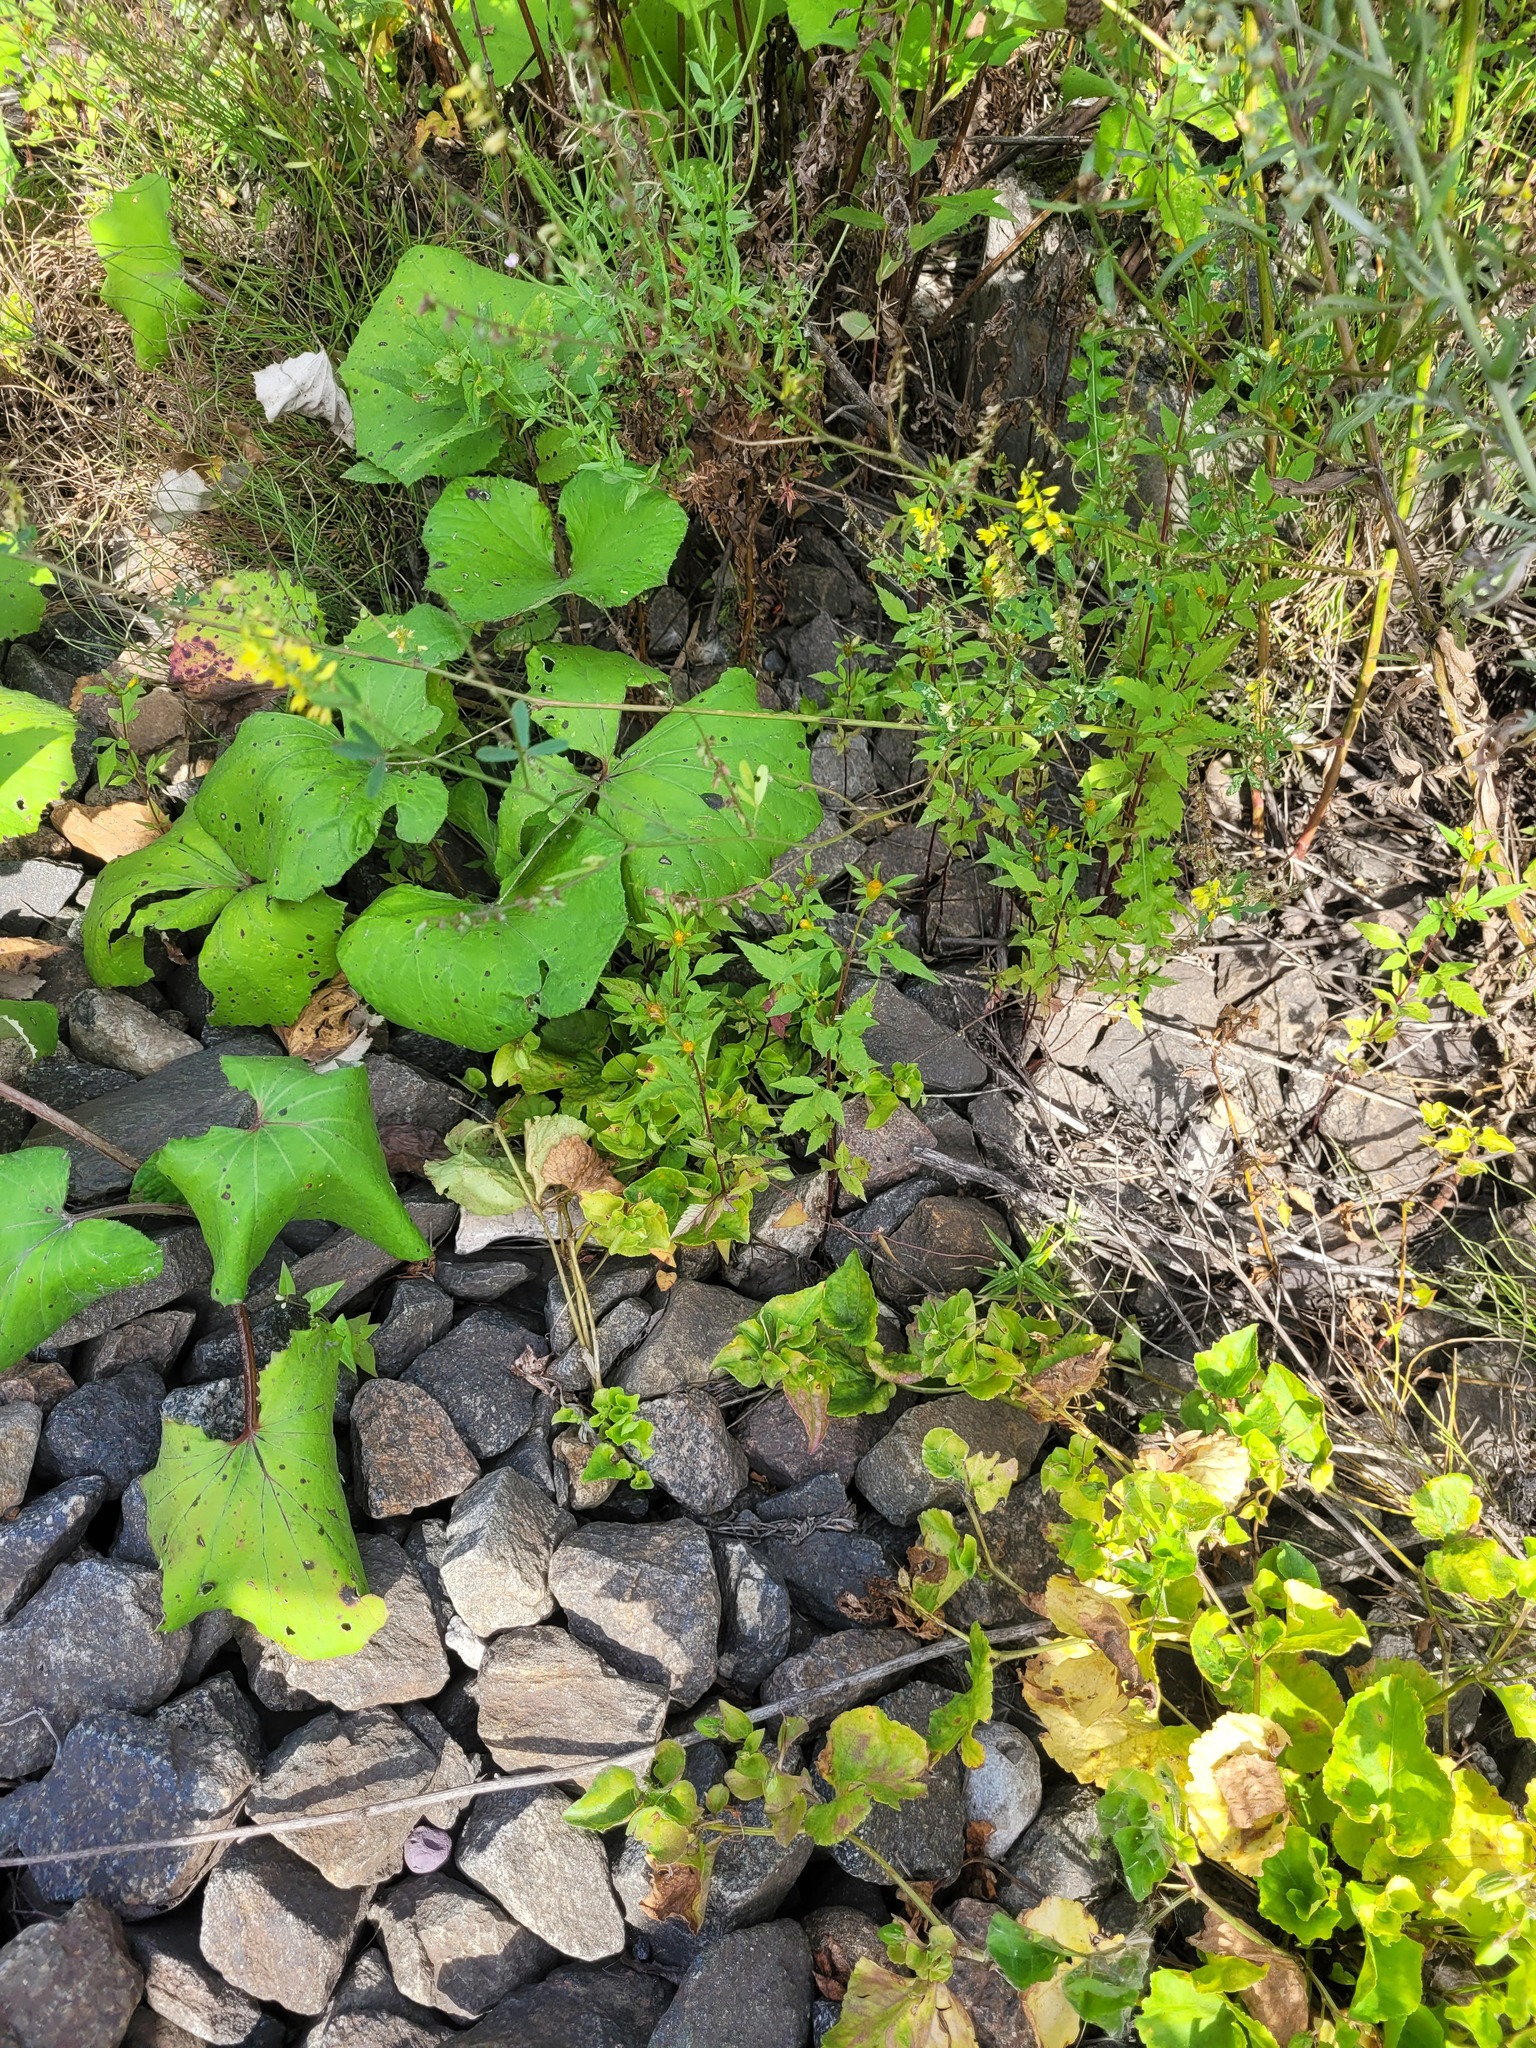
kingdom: Plantae
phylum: Tracheophyta
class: Magnoliopsida
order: Asterales
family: Asteraceae
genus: Bidens
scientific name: Bidens frondosa
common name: Beggarticks
